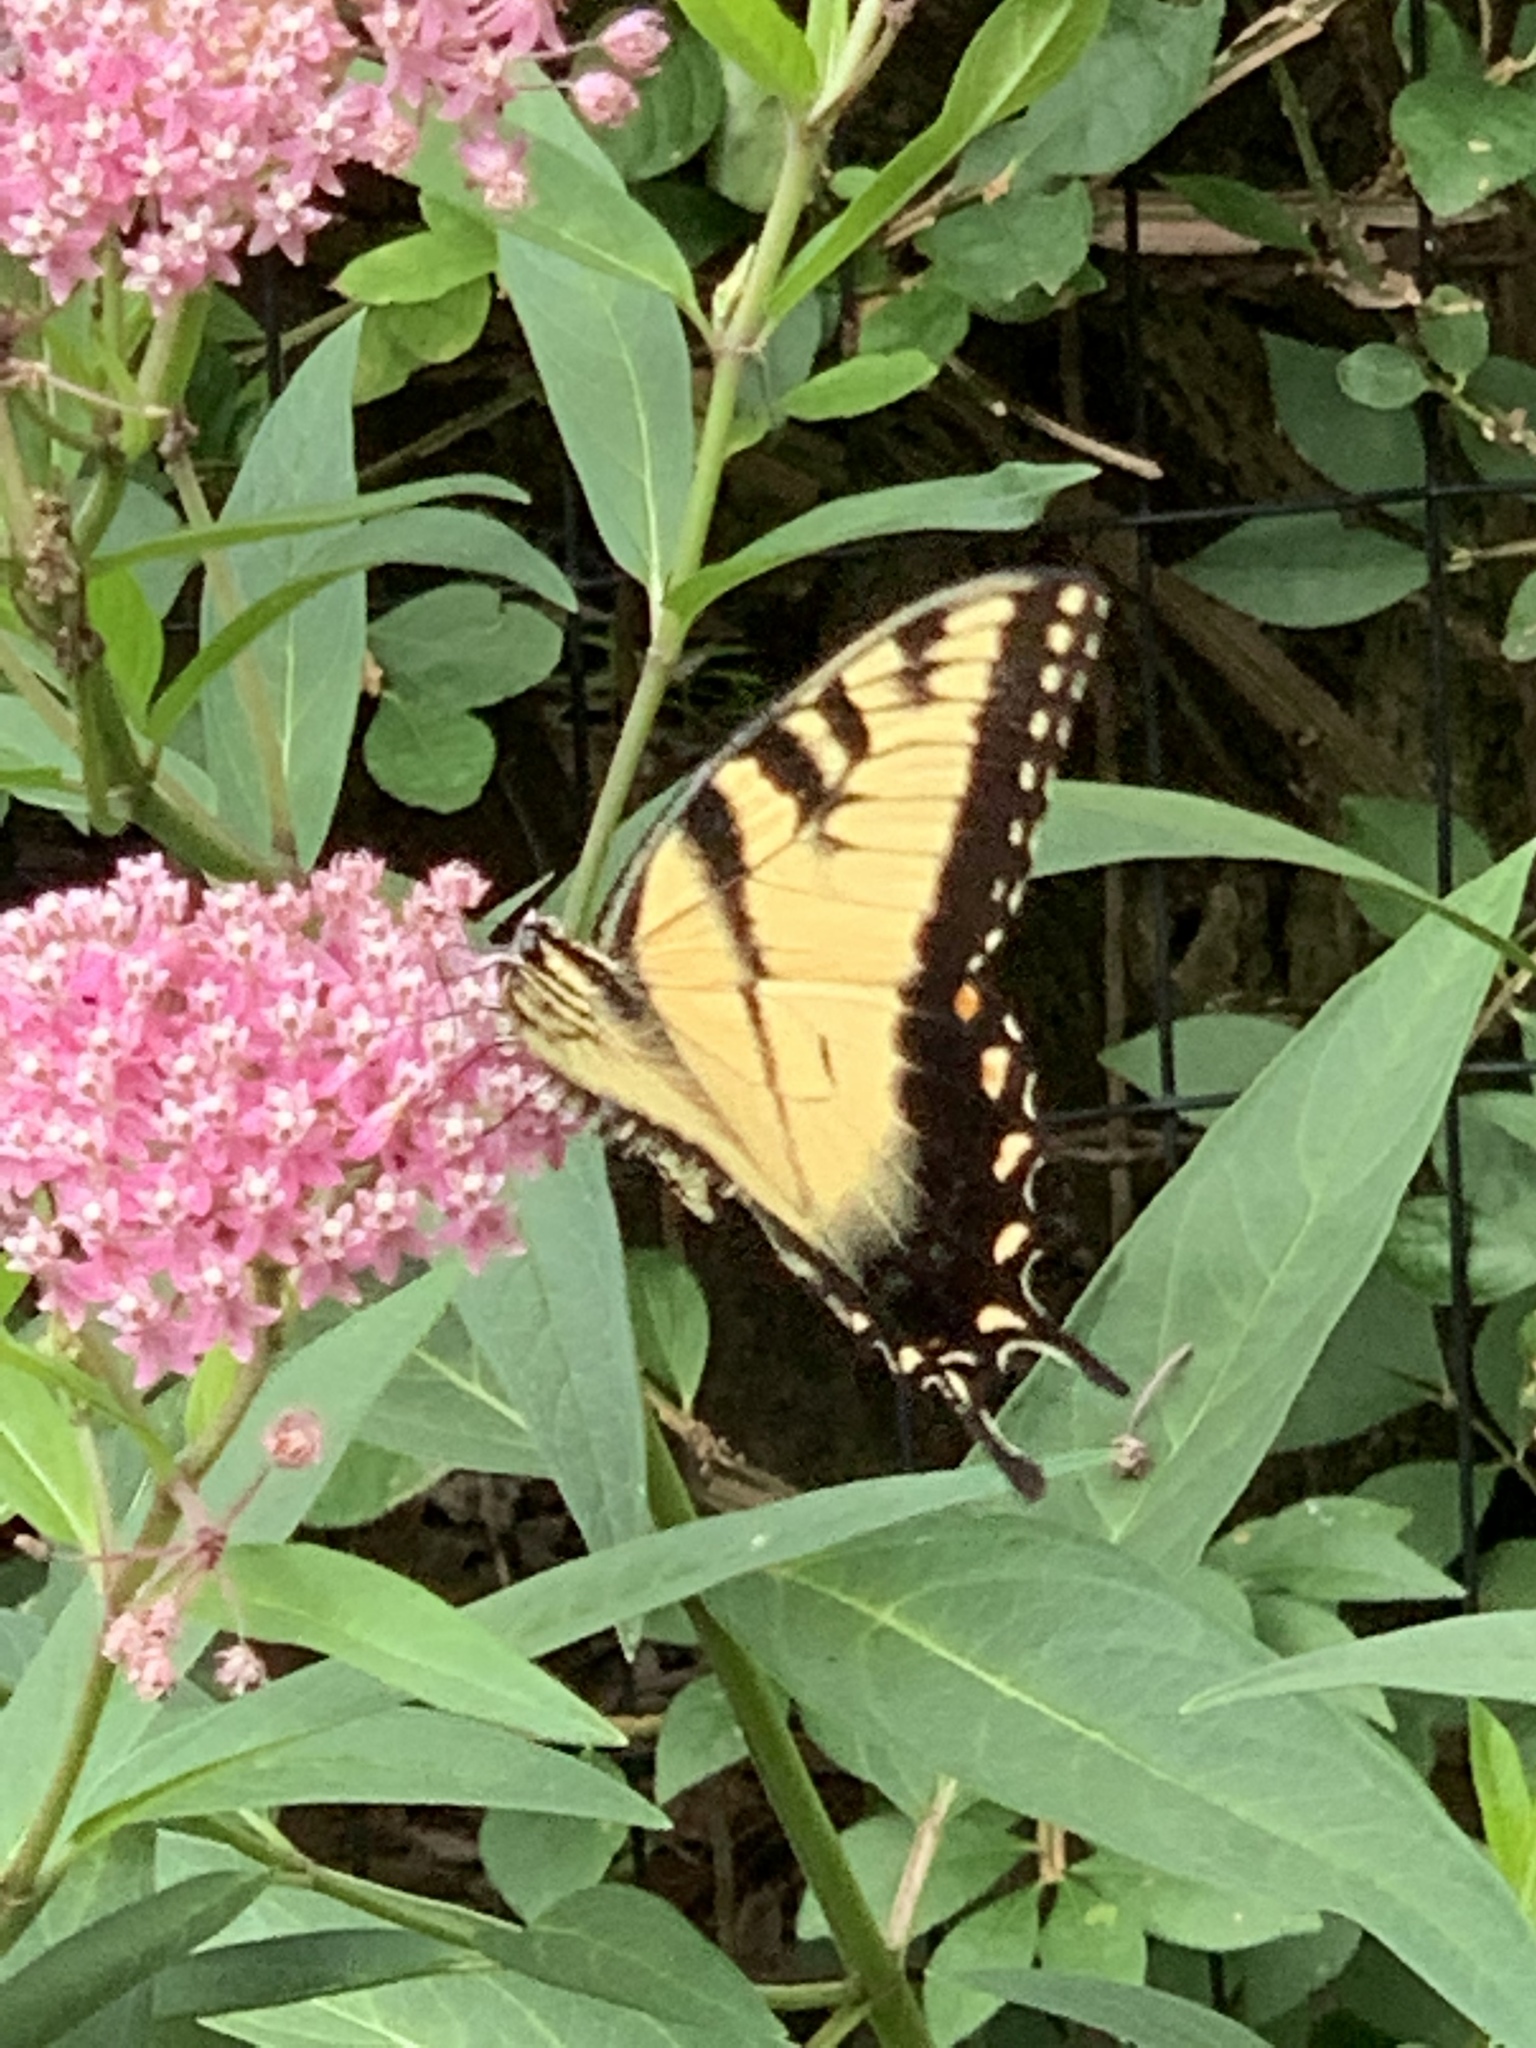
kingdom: Animalia
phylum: Arthropoda
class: Insecta
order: Lepidoptera
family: Papilionidae
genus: Papilio
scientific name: Papilio glaucus
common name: Tiger swallowtail
